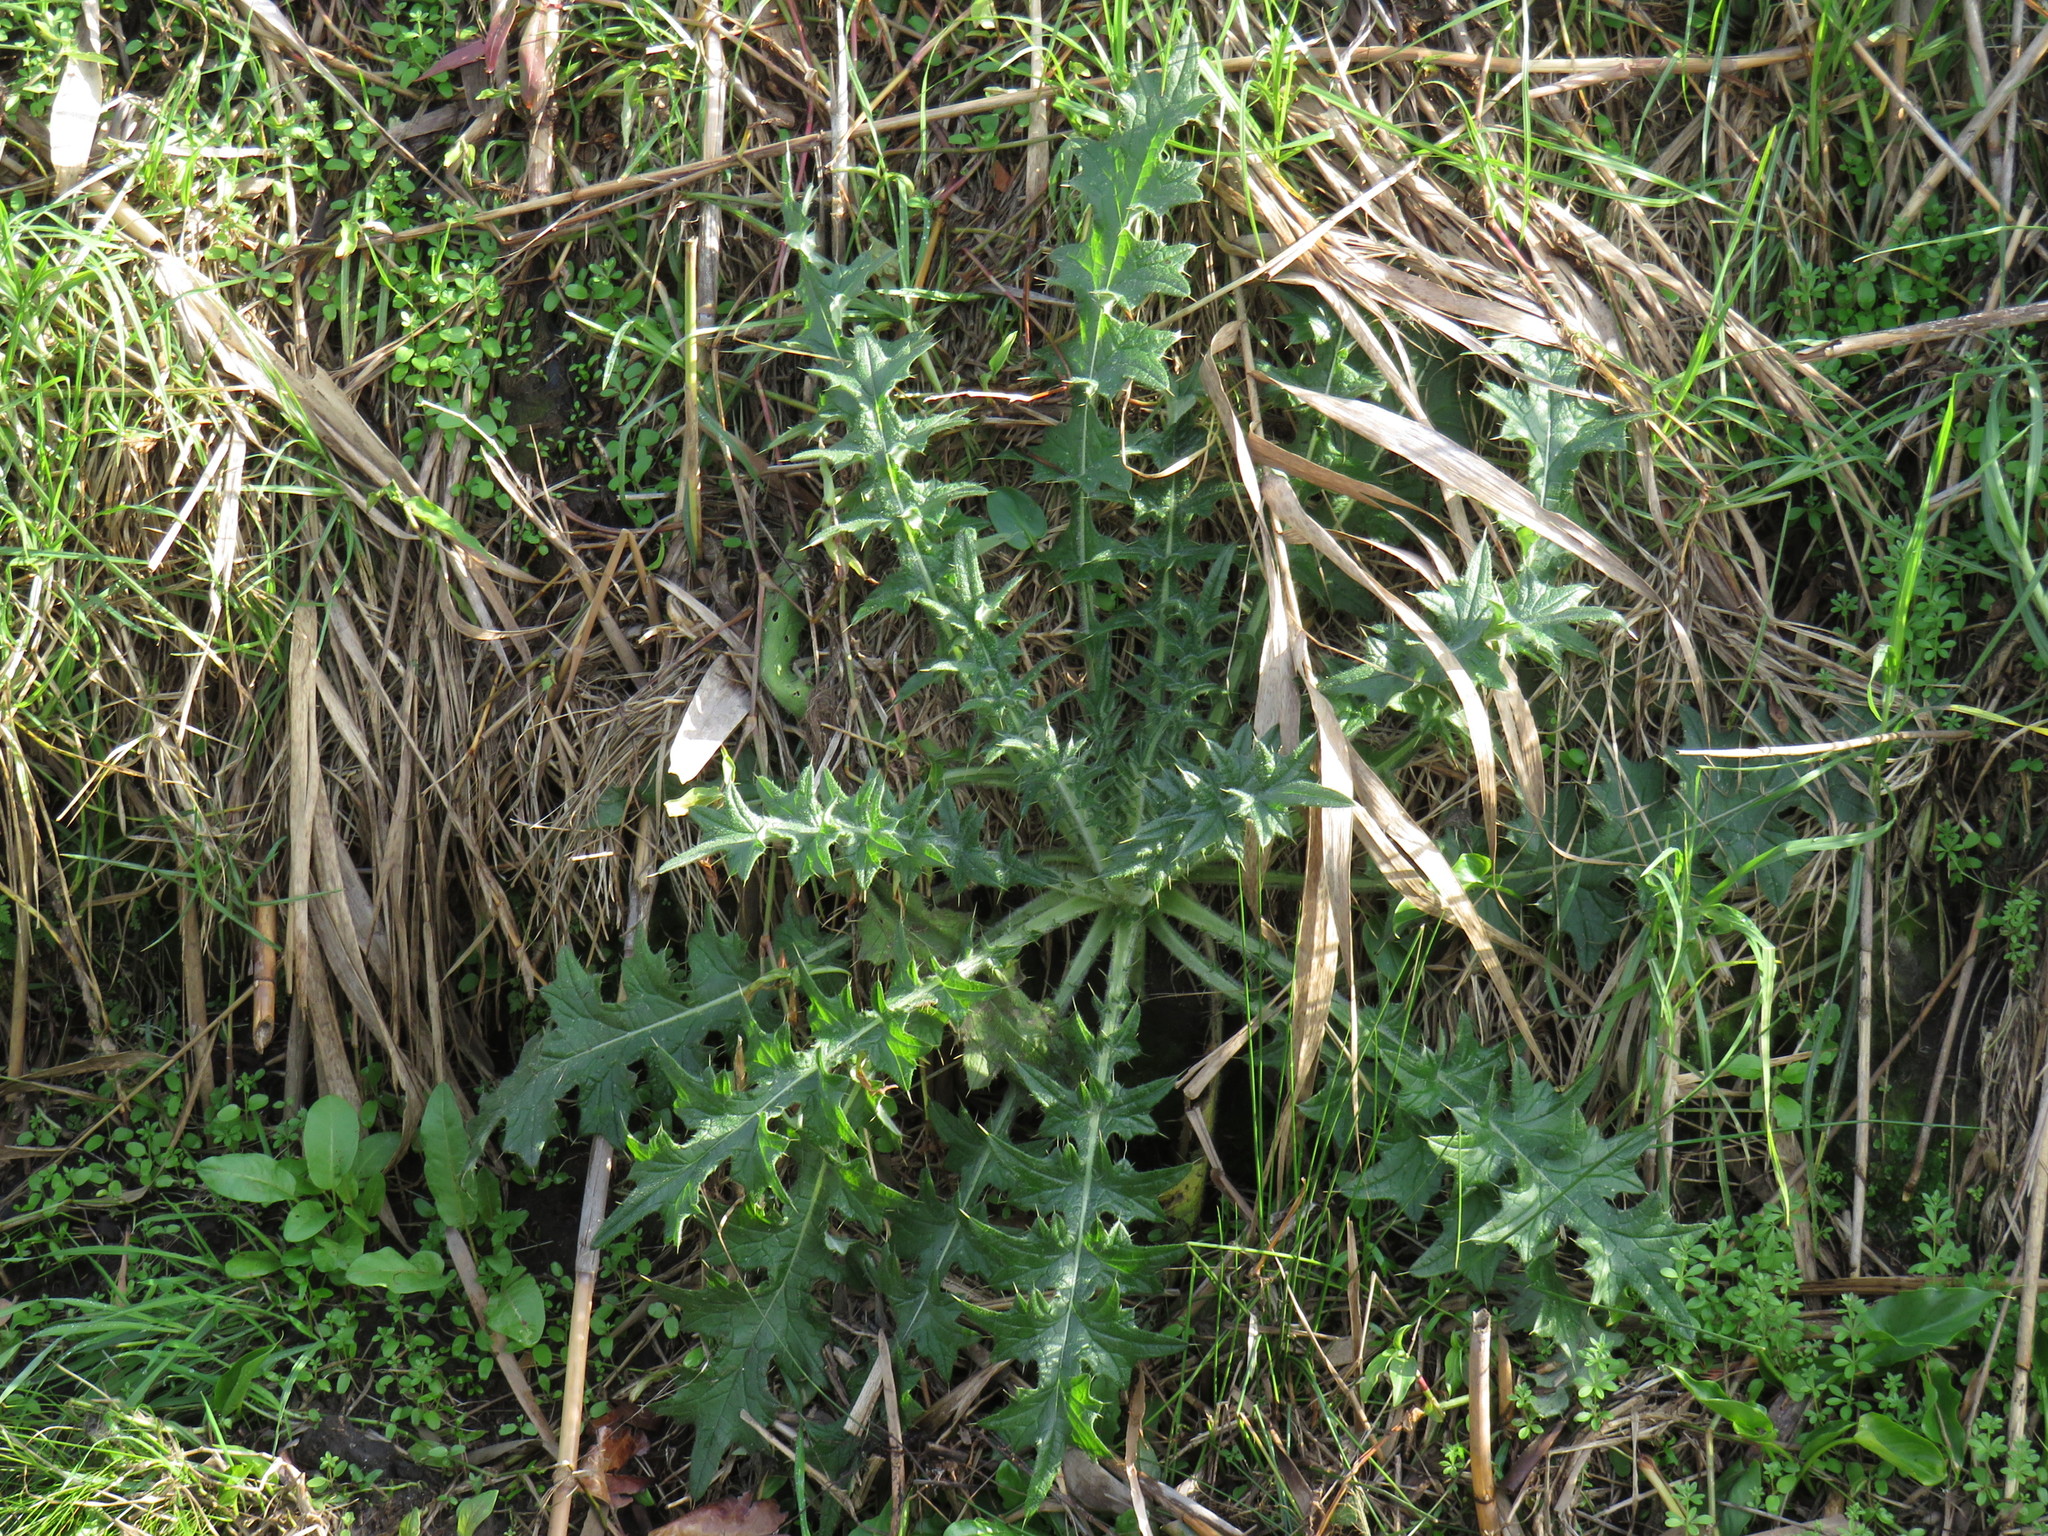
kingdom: Plantae
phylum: Tracheophyta
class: Magnoliopsida
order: Asterales
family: Asteraceae
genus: Cirsium
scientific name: Cirsium vulgare
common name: Bull thistle
